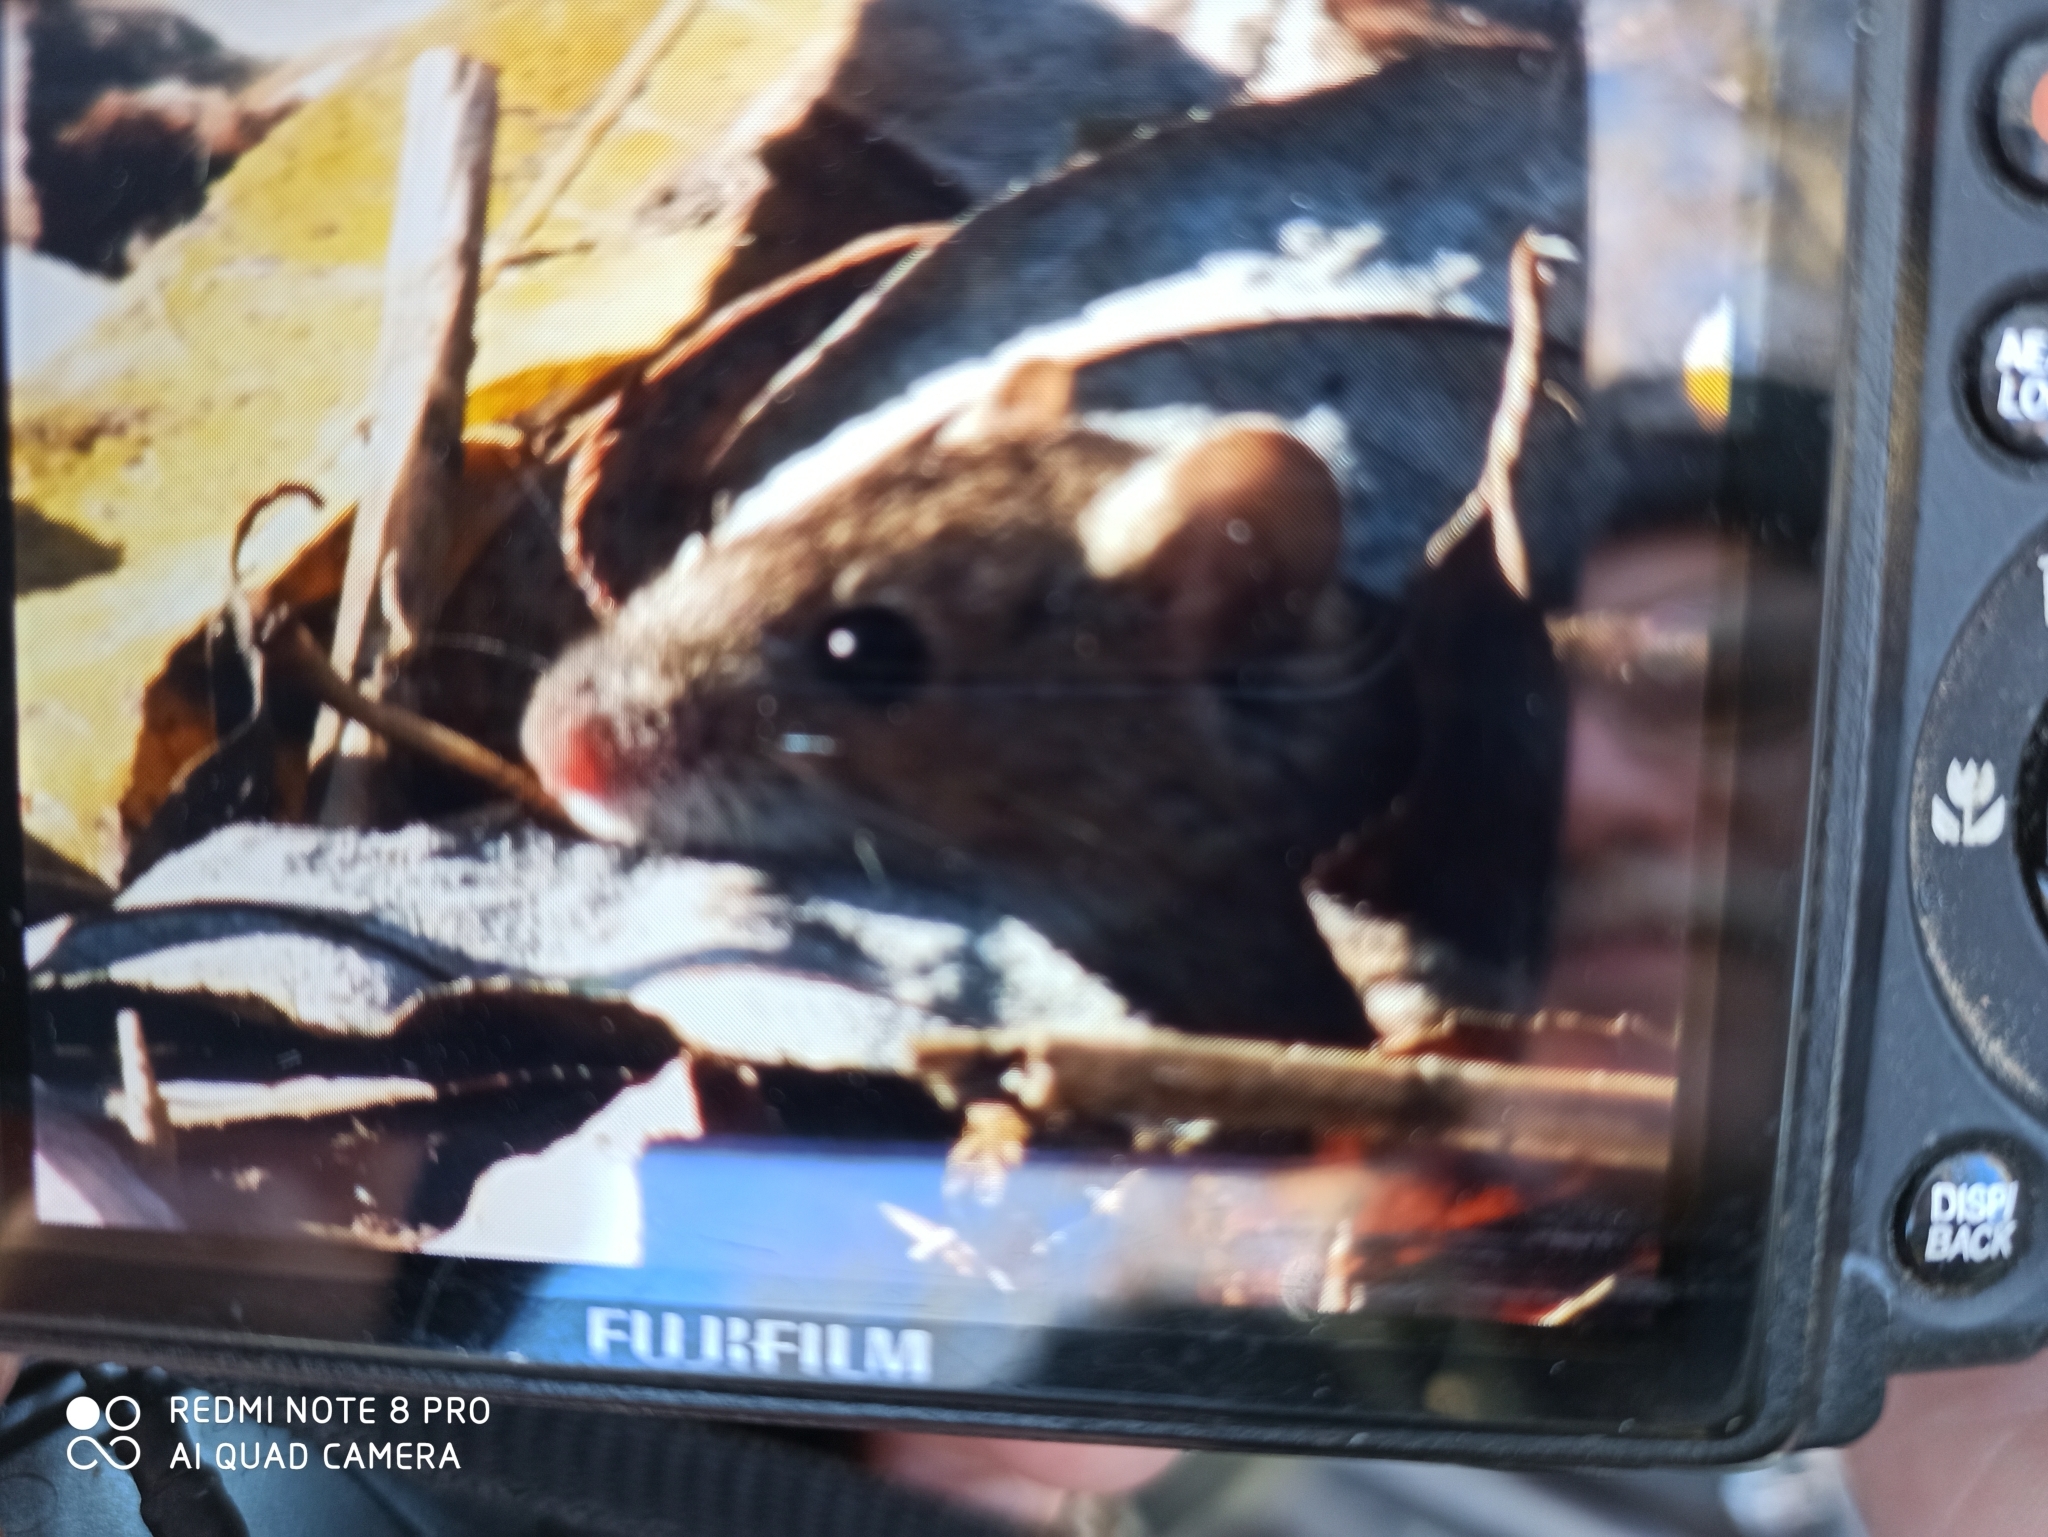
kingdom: Animalia
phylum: Chordata
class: Mammalia
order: Rodentia
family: Muridae
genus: Apodemus
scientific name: Apodemus agrarius
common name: Striped field mouse
